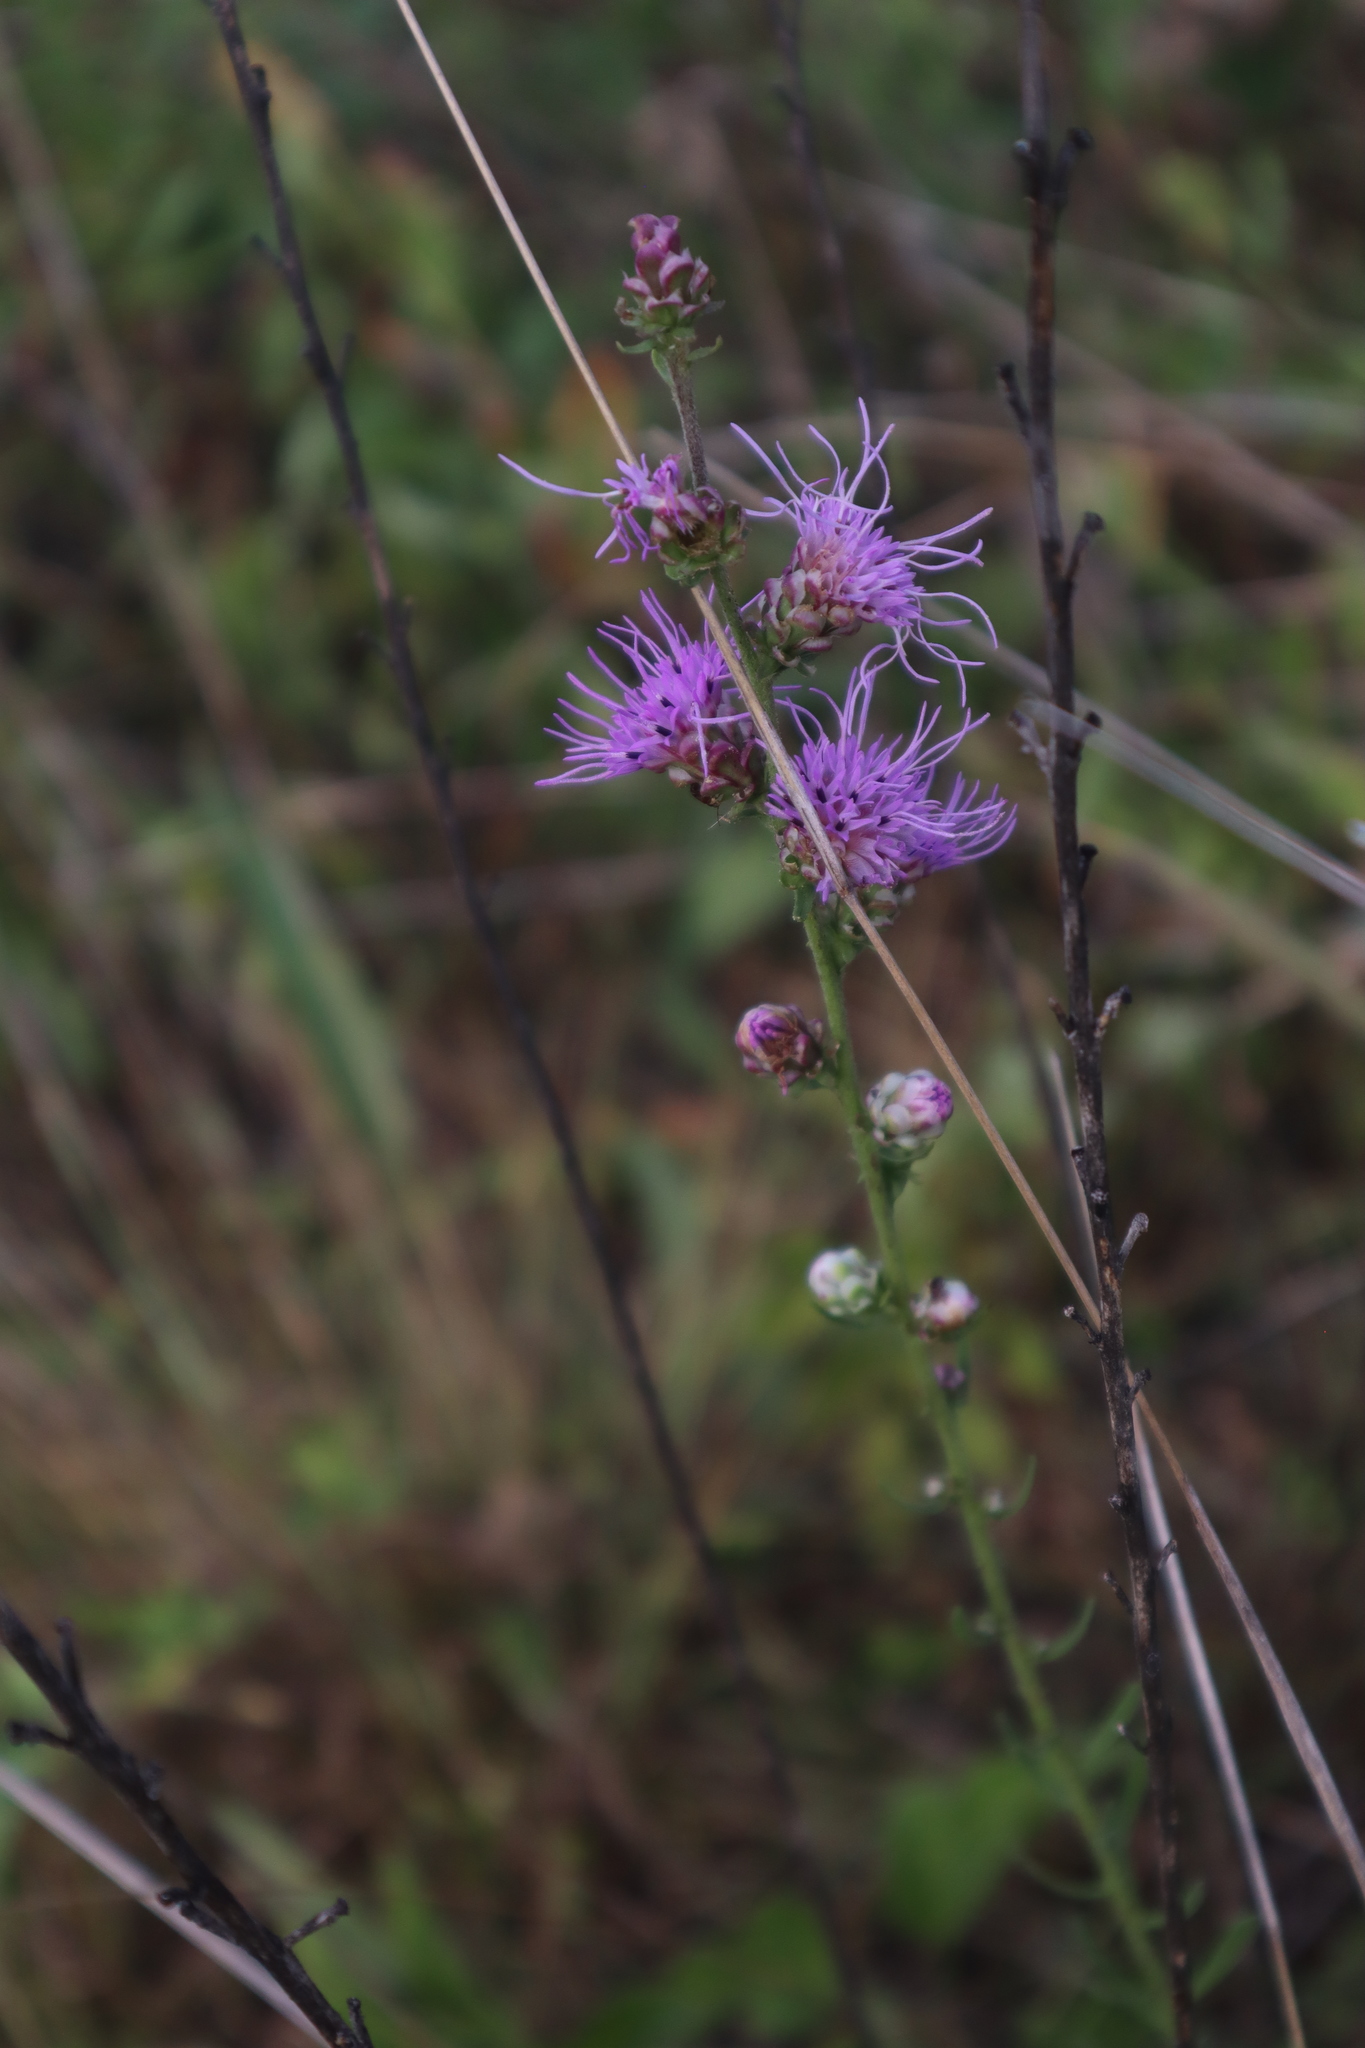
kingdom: Plantae
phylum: Tracheophyta
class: Magnoliopsida
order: Asterales
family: Asteraceae
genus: Liatris
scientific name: Liatris aspera
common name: Lacerate blazing-star
